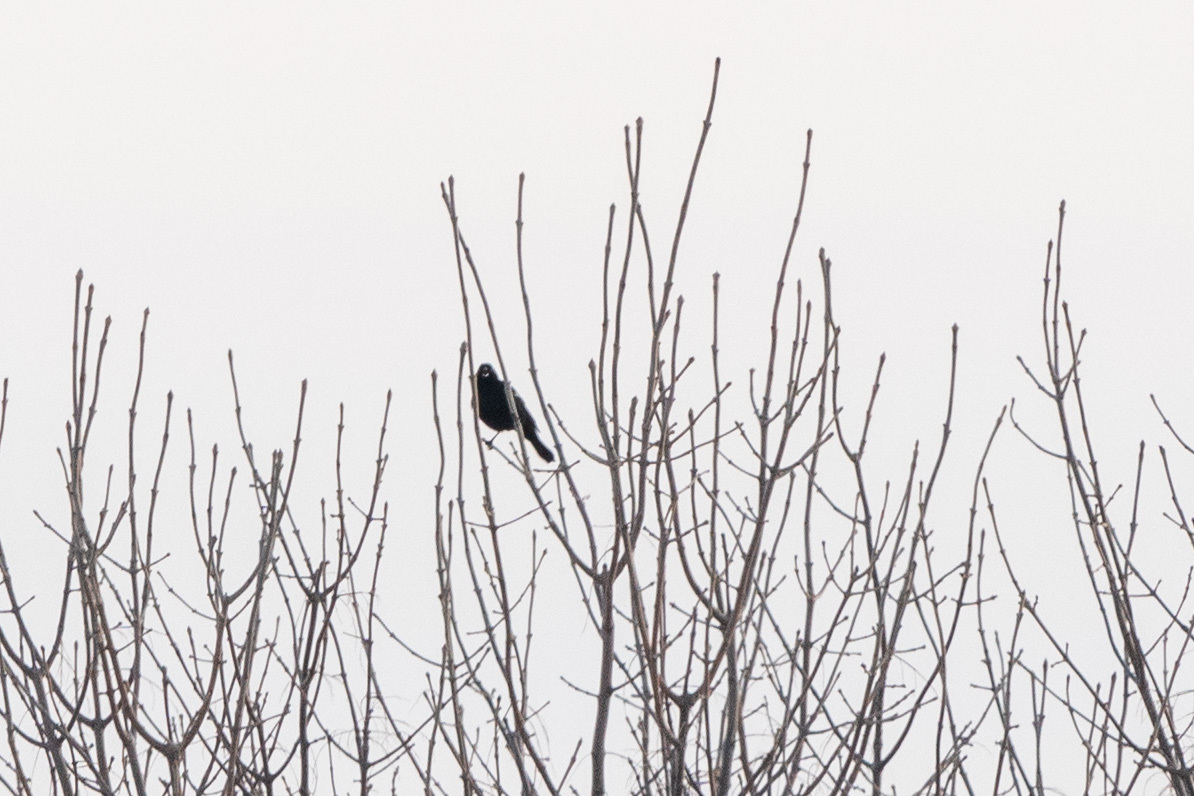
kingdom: Animalia
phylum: Chordata
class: Aves
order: Passeriformes
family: Icteridae
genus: Agelaius
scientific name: Agelaius phoeniceus
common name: Red-winged blackbird
